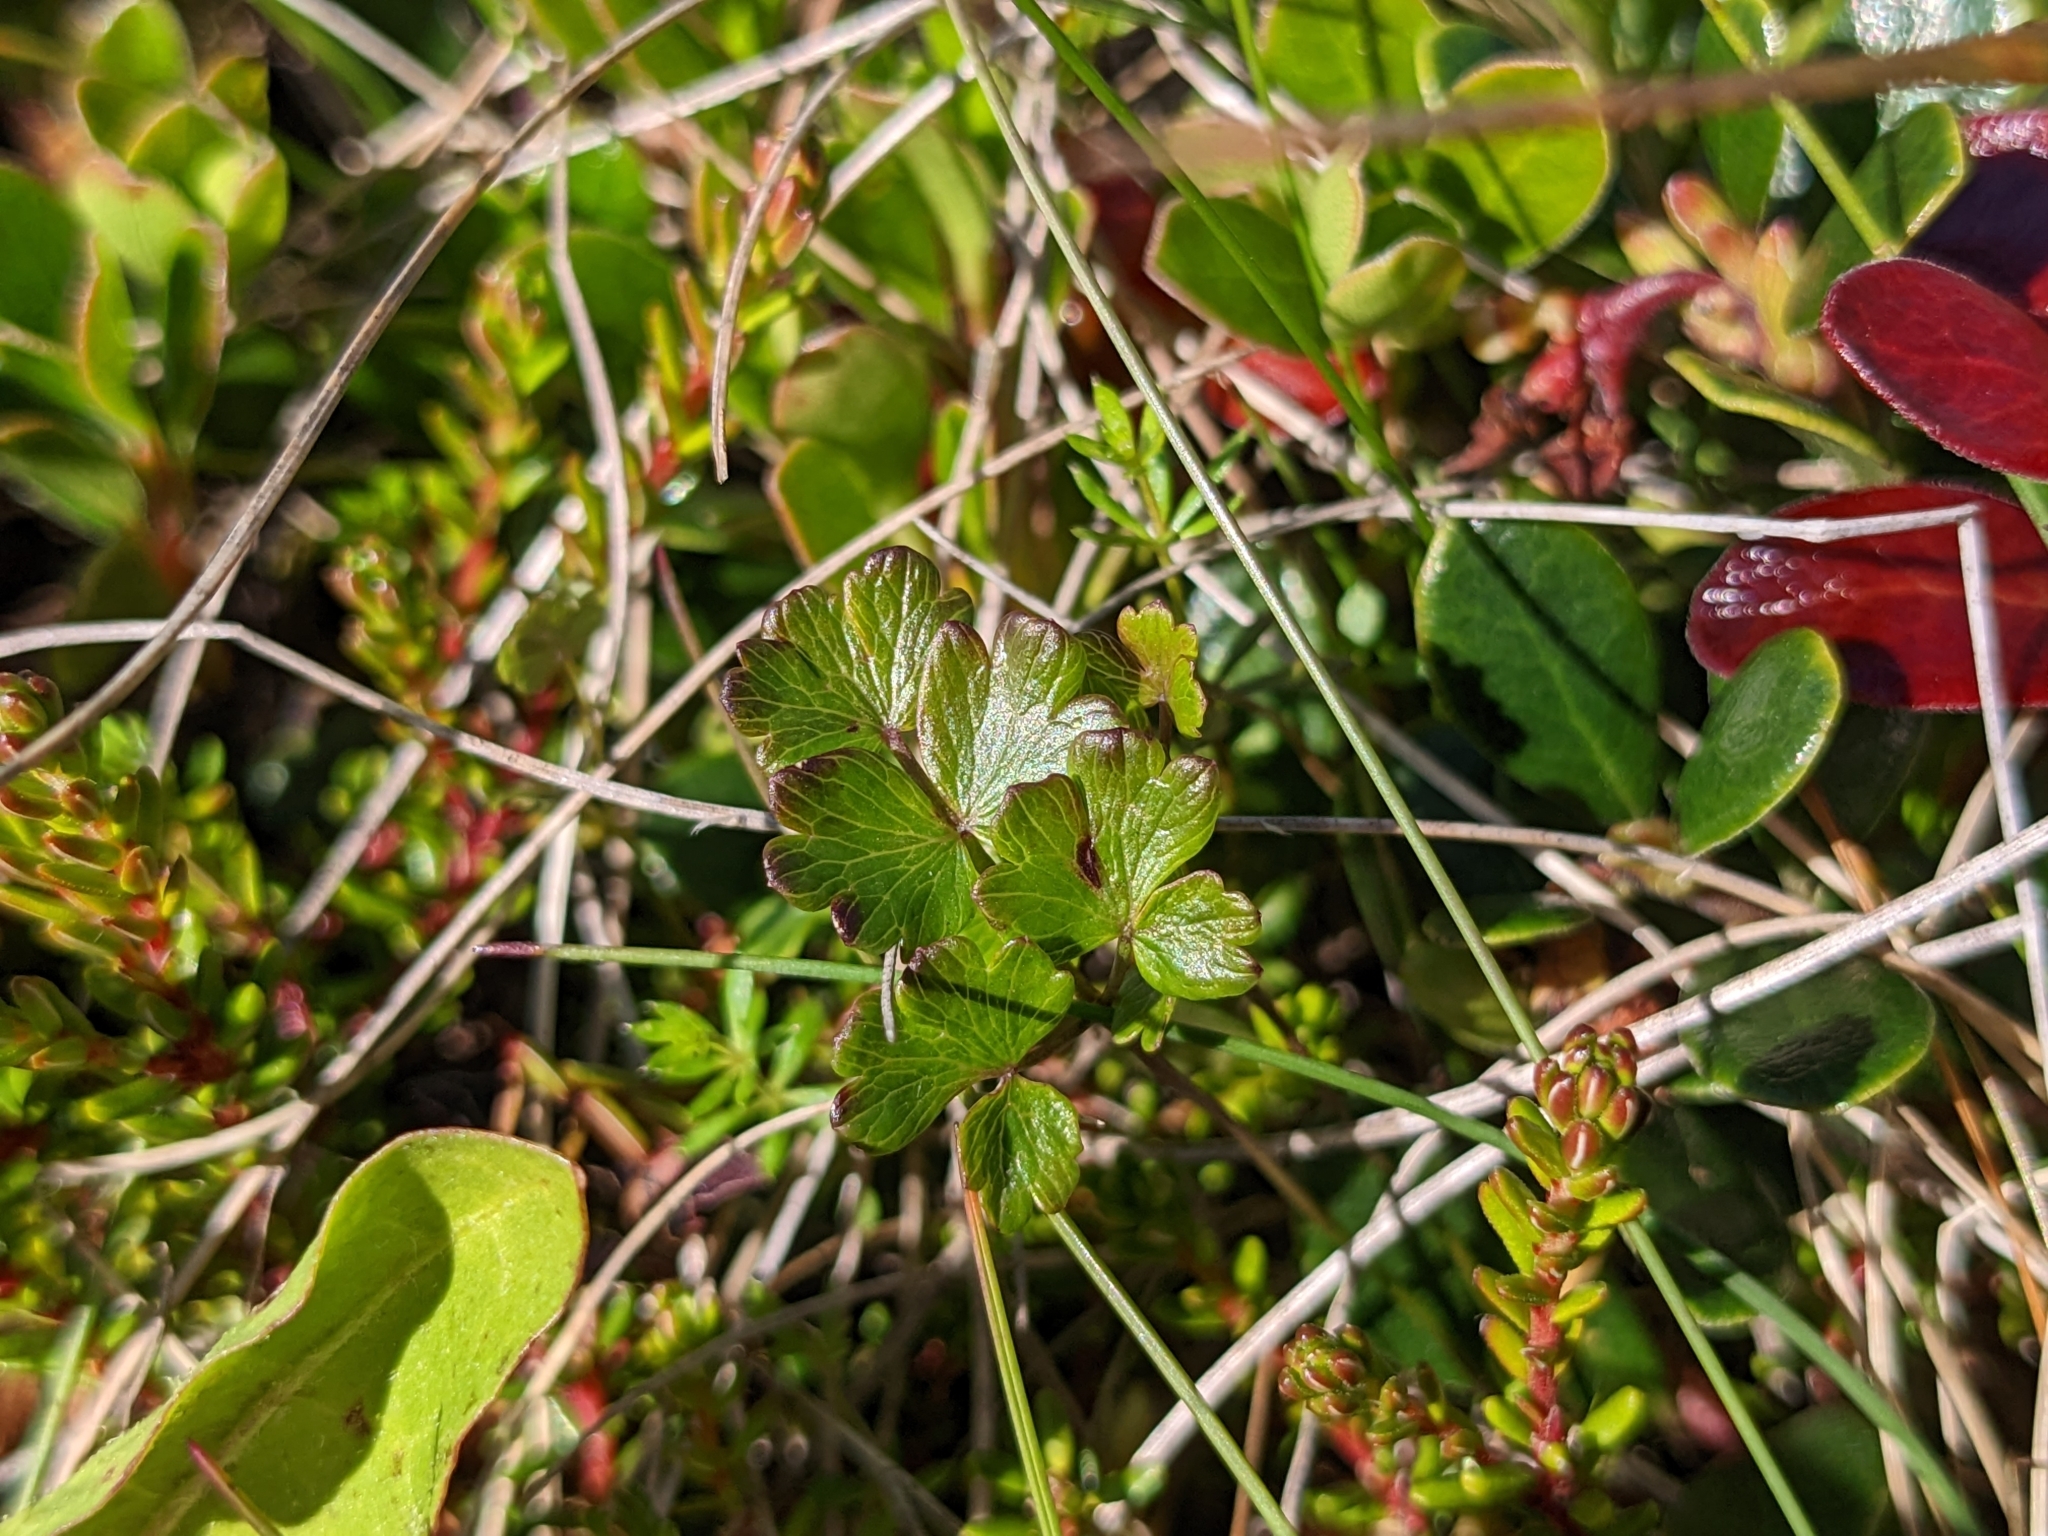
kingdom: Plantae
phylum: Tracheophyta
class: Magnoliopsida
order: Ranunculales
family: Ranunculaceae
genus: Thalictrum
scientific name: Thalictrum alpinum
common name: Alpine meadow-rue
